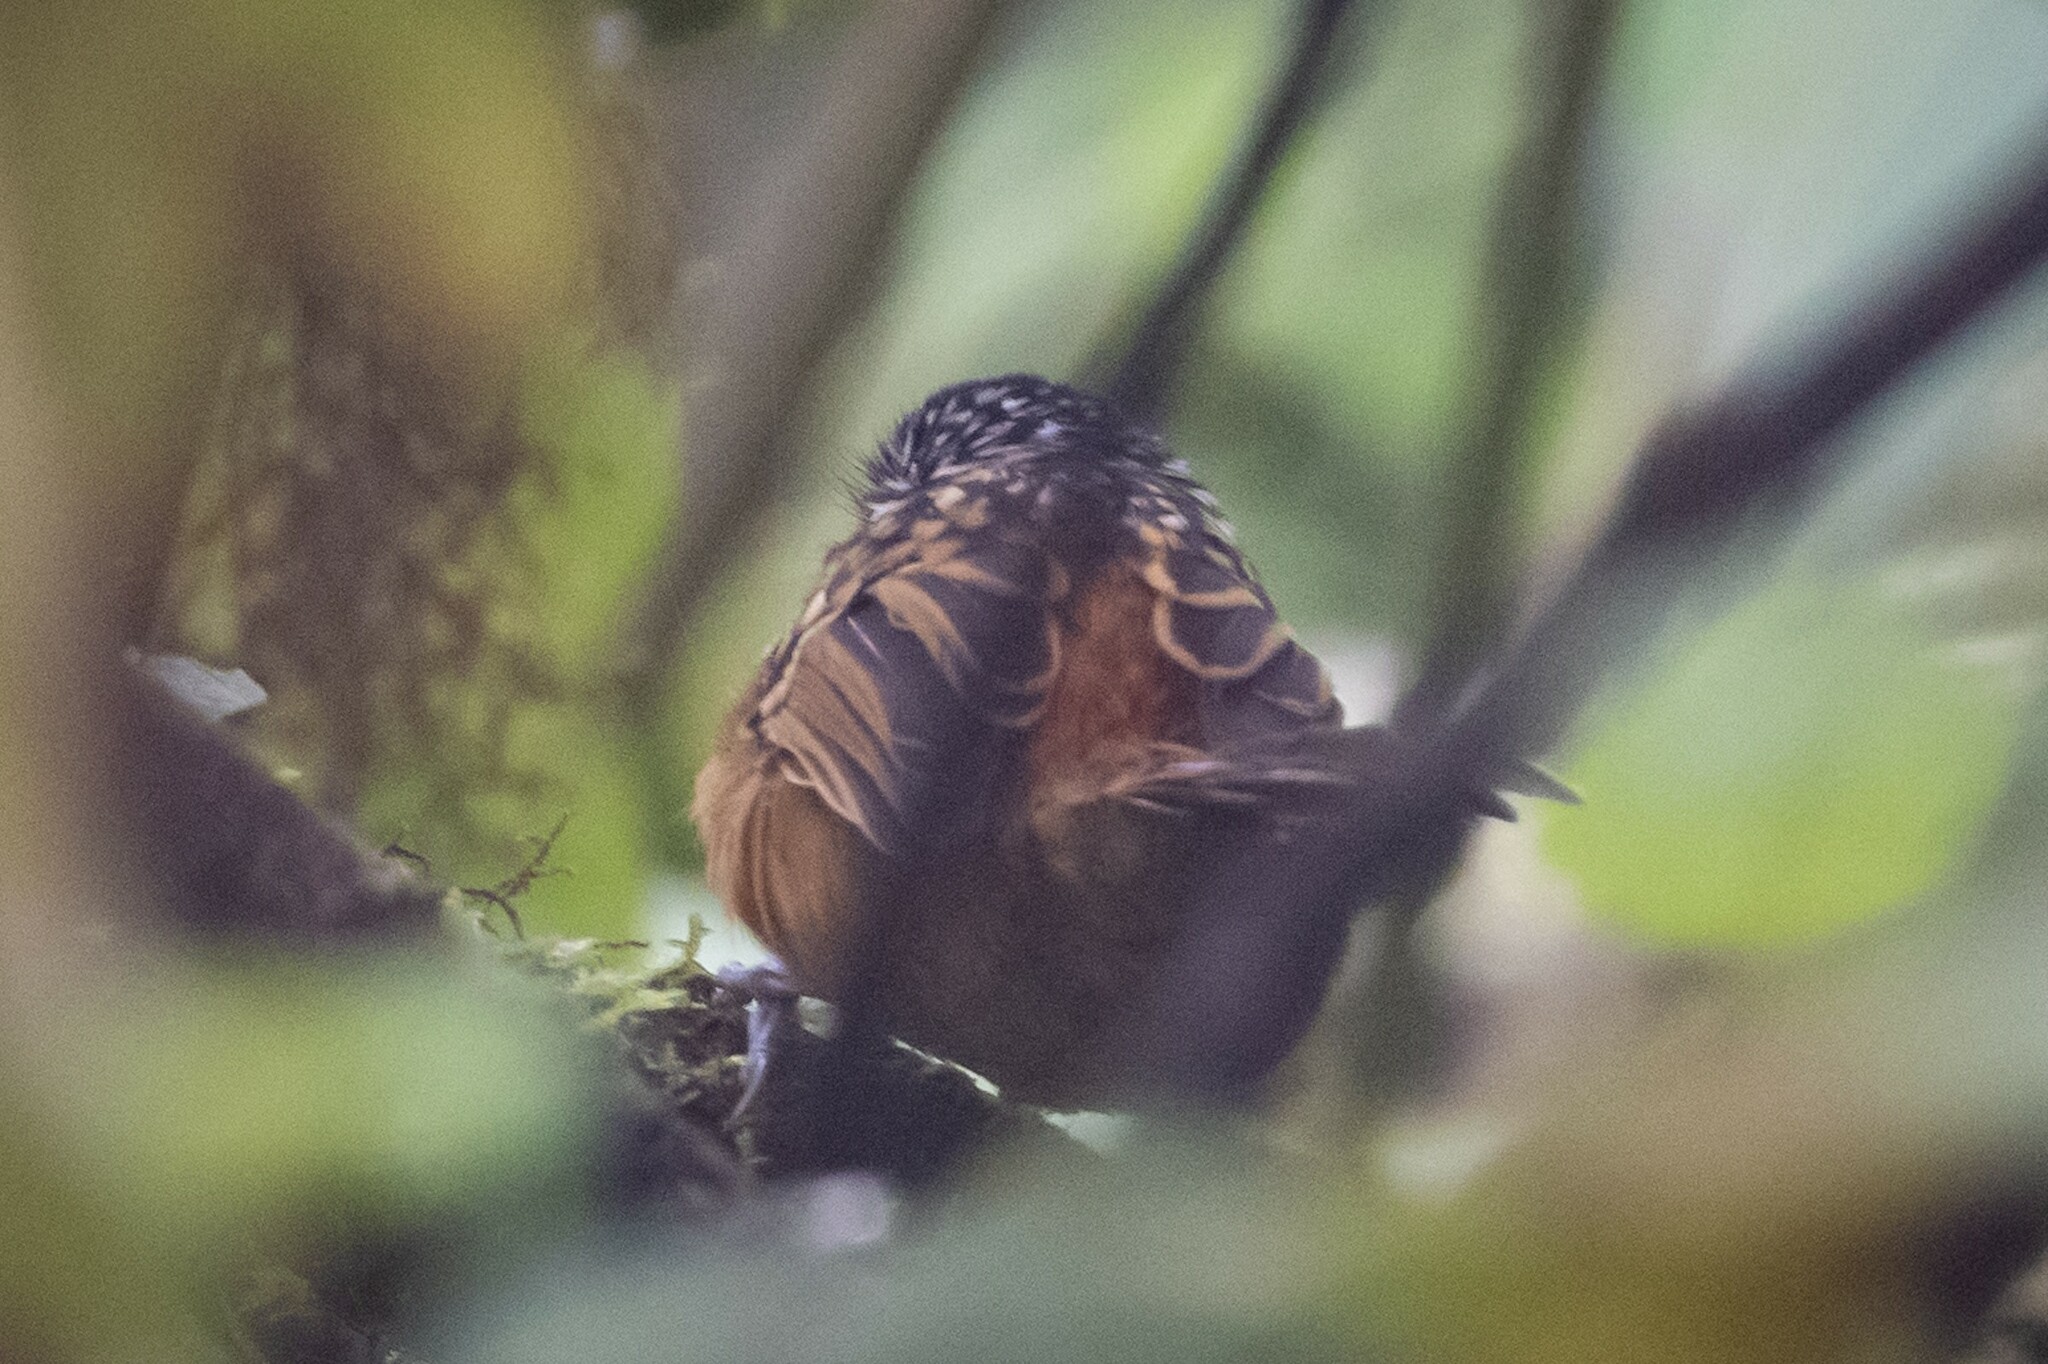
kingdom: Animalia
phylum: Chordata
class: Aves
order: Passeriformes
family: Thamnophilidae
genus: Drymophila
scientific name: Drymophila striaticeps
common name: Streak-headed antbird
